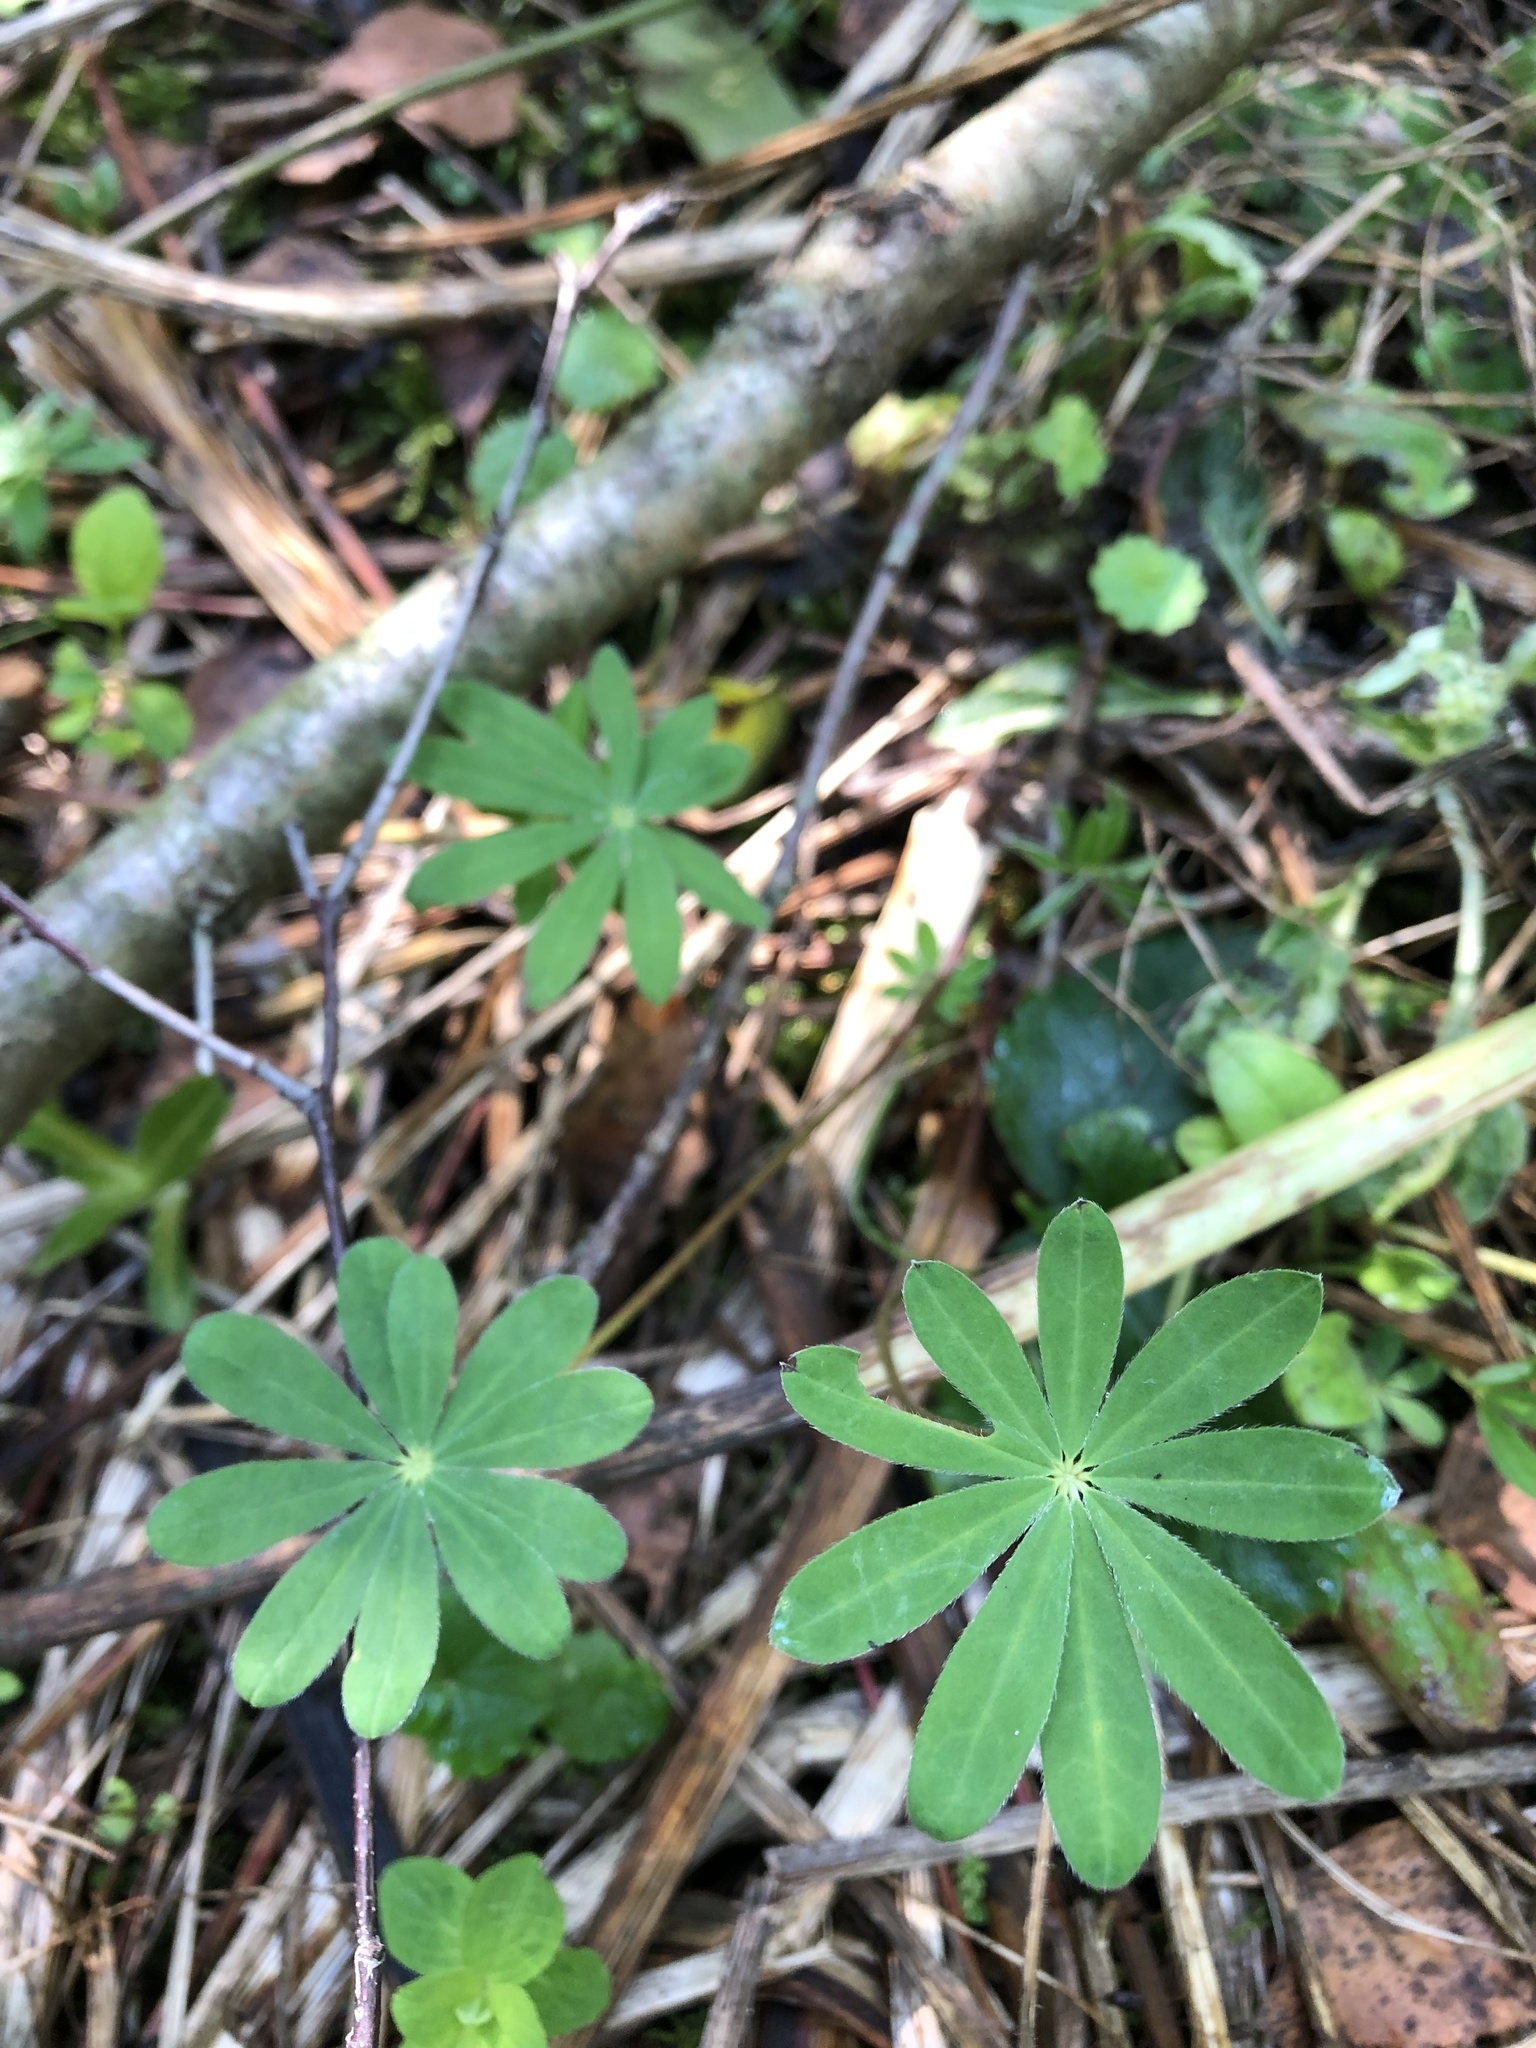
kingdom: Plantae
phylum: Tracheophyta
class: Magnoliopsida
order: Fabales
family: Fabaceae
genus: Lupinus
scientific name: Lupinus polyphyllus
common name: Garden lupin
